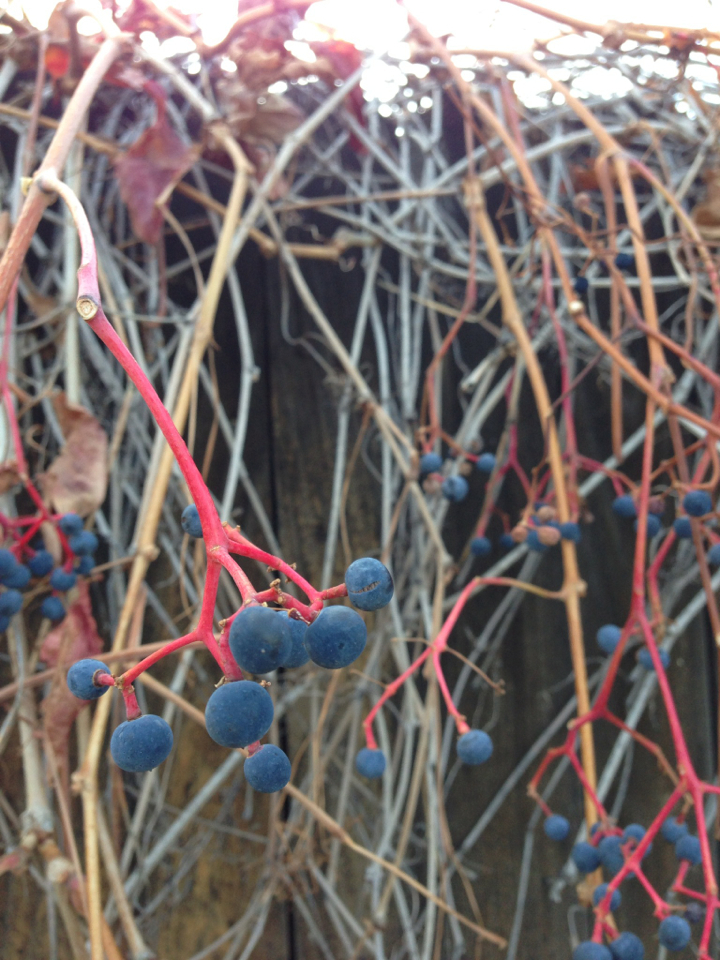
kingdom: Plantae
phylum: Tracheophyta
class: Magnoliopsida
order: Vitales
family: Vitaceae
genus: Parthenocissus
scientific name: Parthenocissus quinquefolia
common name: Virginia-creeper
